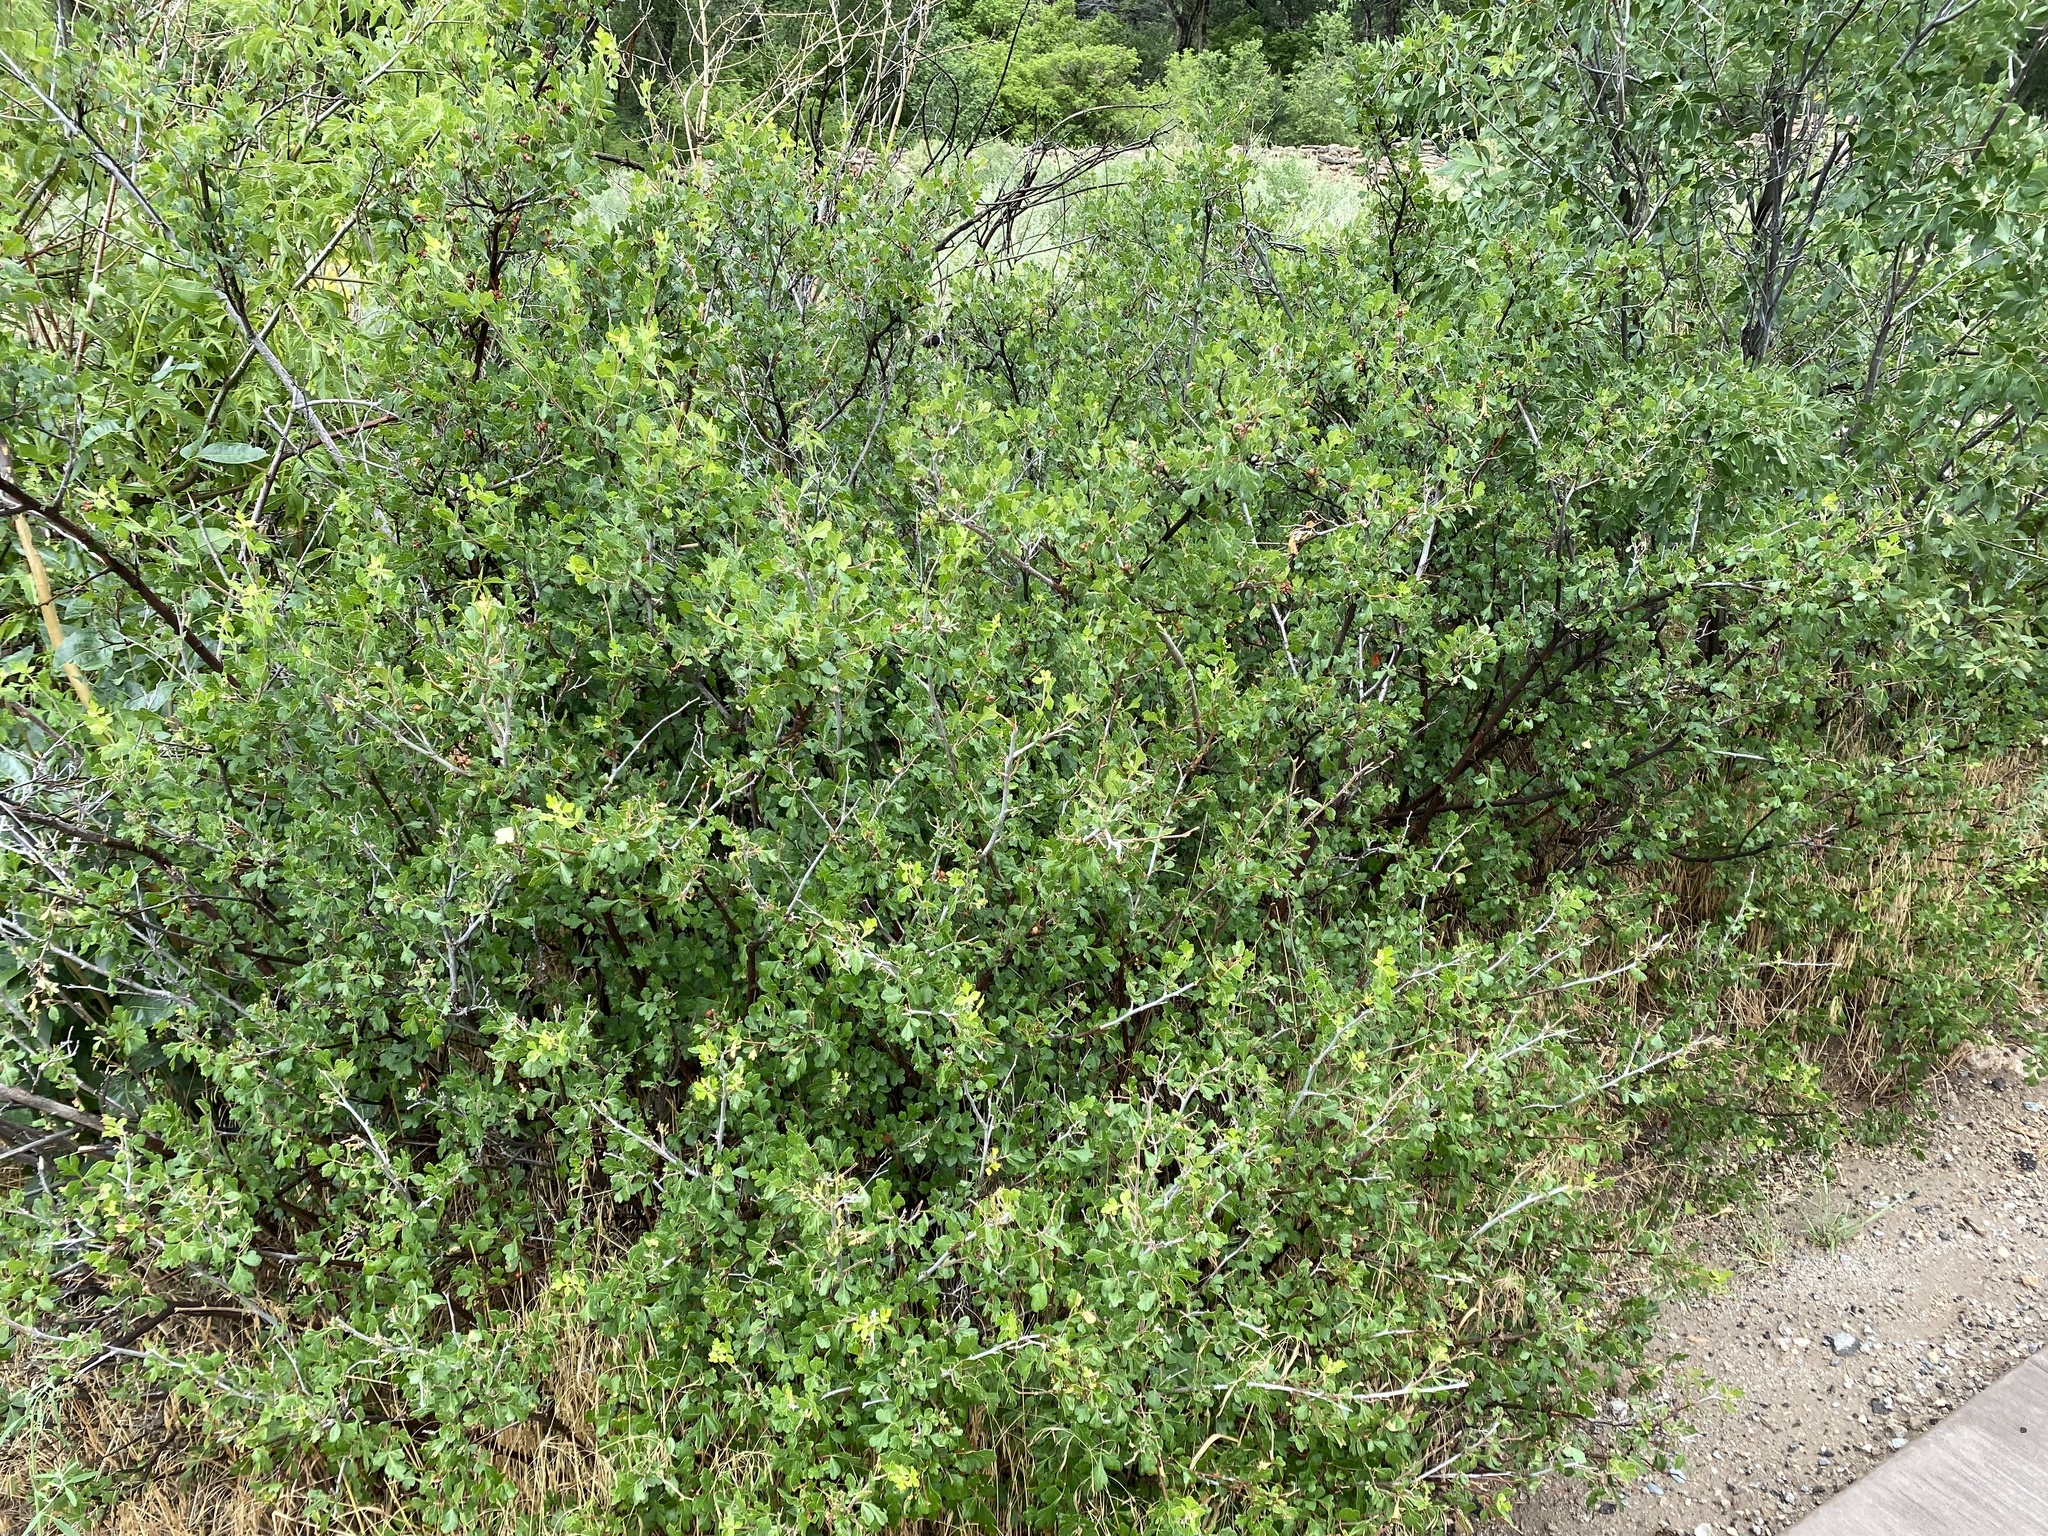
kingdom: Plantae
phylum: Tracheophyta
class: Magnoliopsida
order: Sapindales
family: Anacardiaceae
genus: Rhus
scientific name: Rhus trilobata
